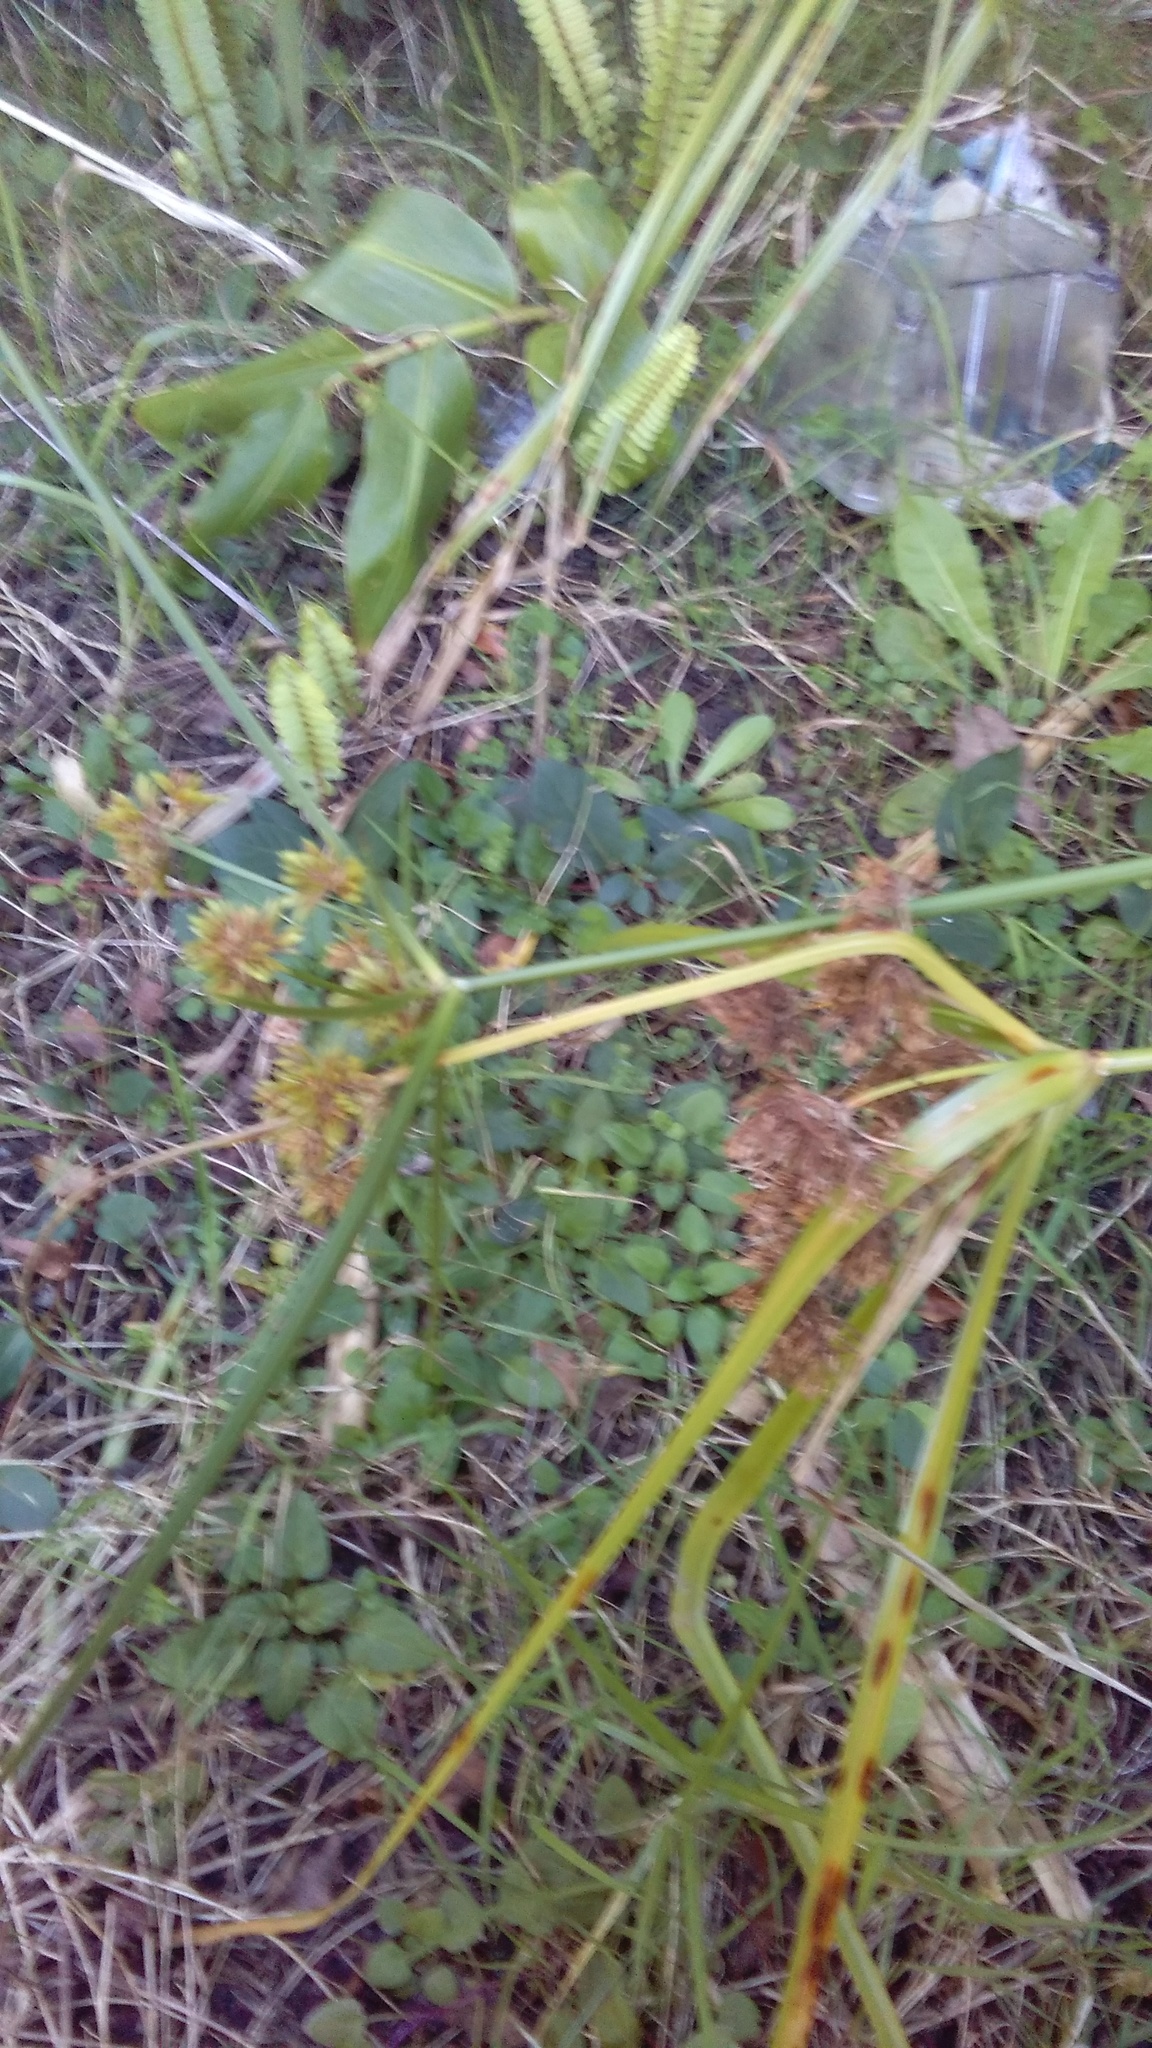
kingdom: Plantae
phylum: Tracheophyta
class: Liliopsida
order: Zingiberales
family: Zingiberaceae
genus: Hedychium
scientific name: Hedychium gardnerianum
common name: Himalayan ginger
